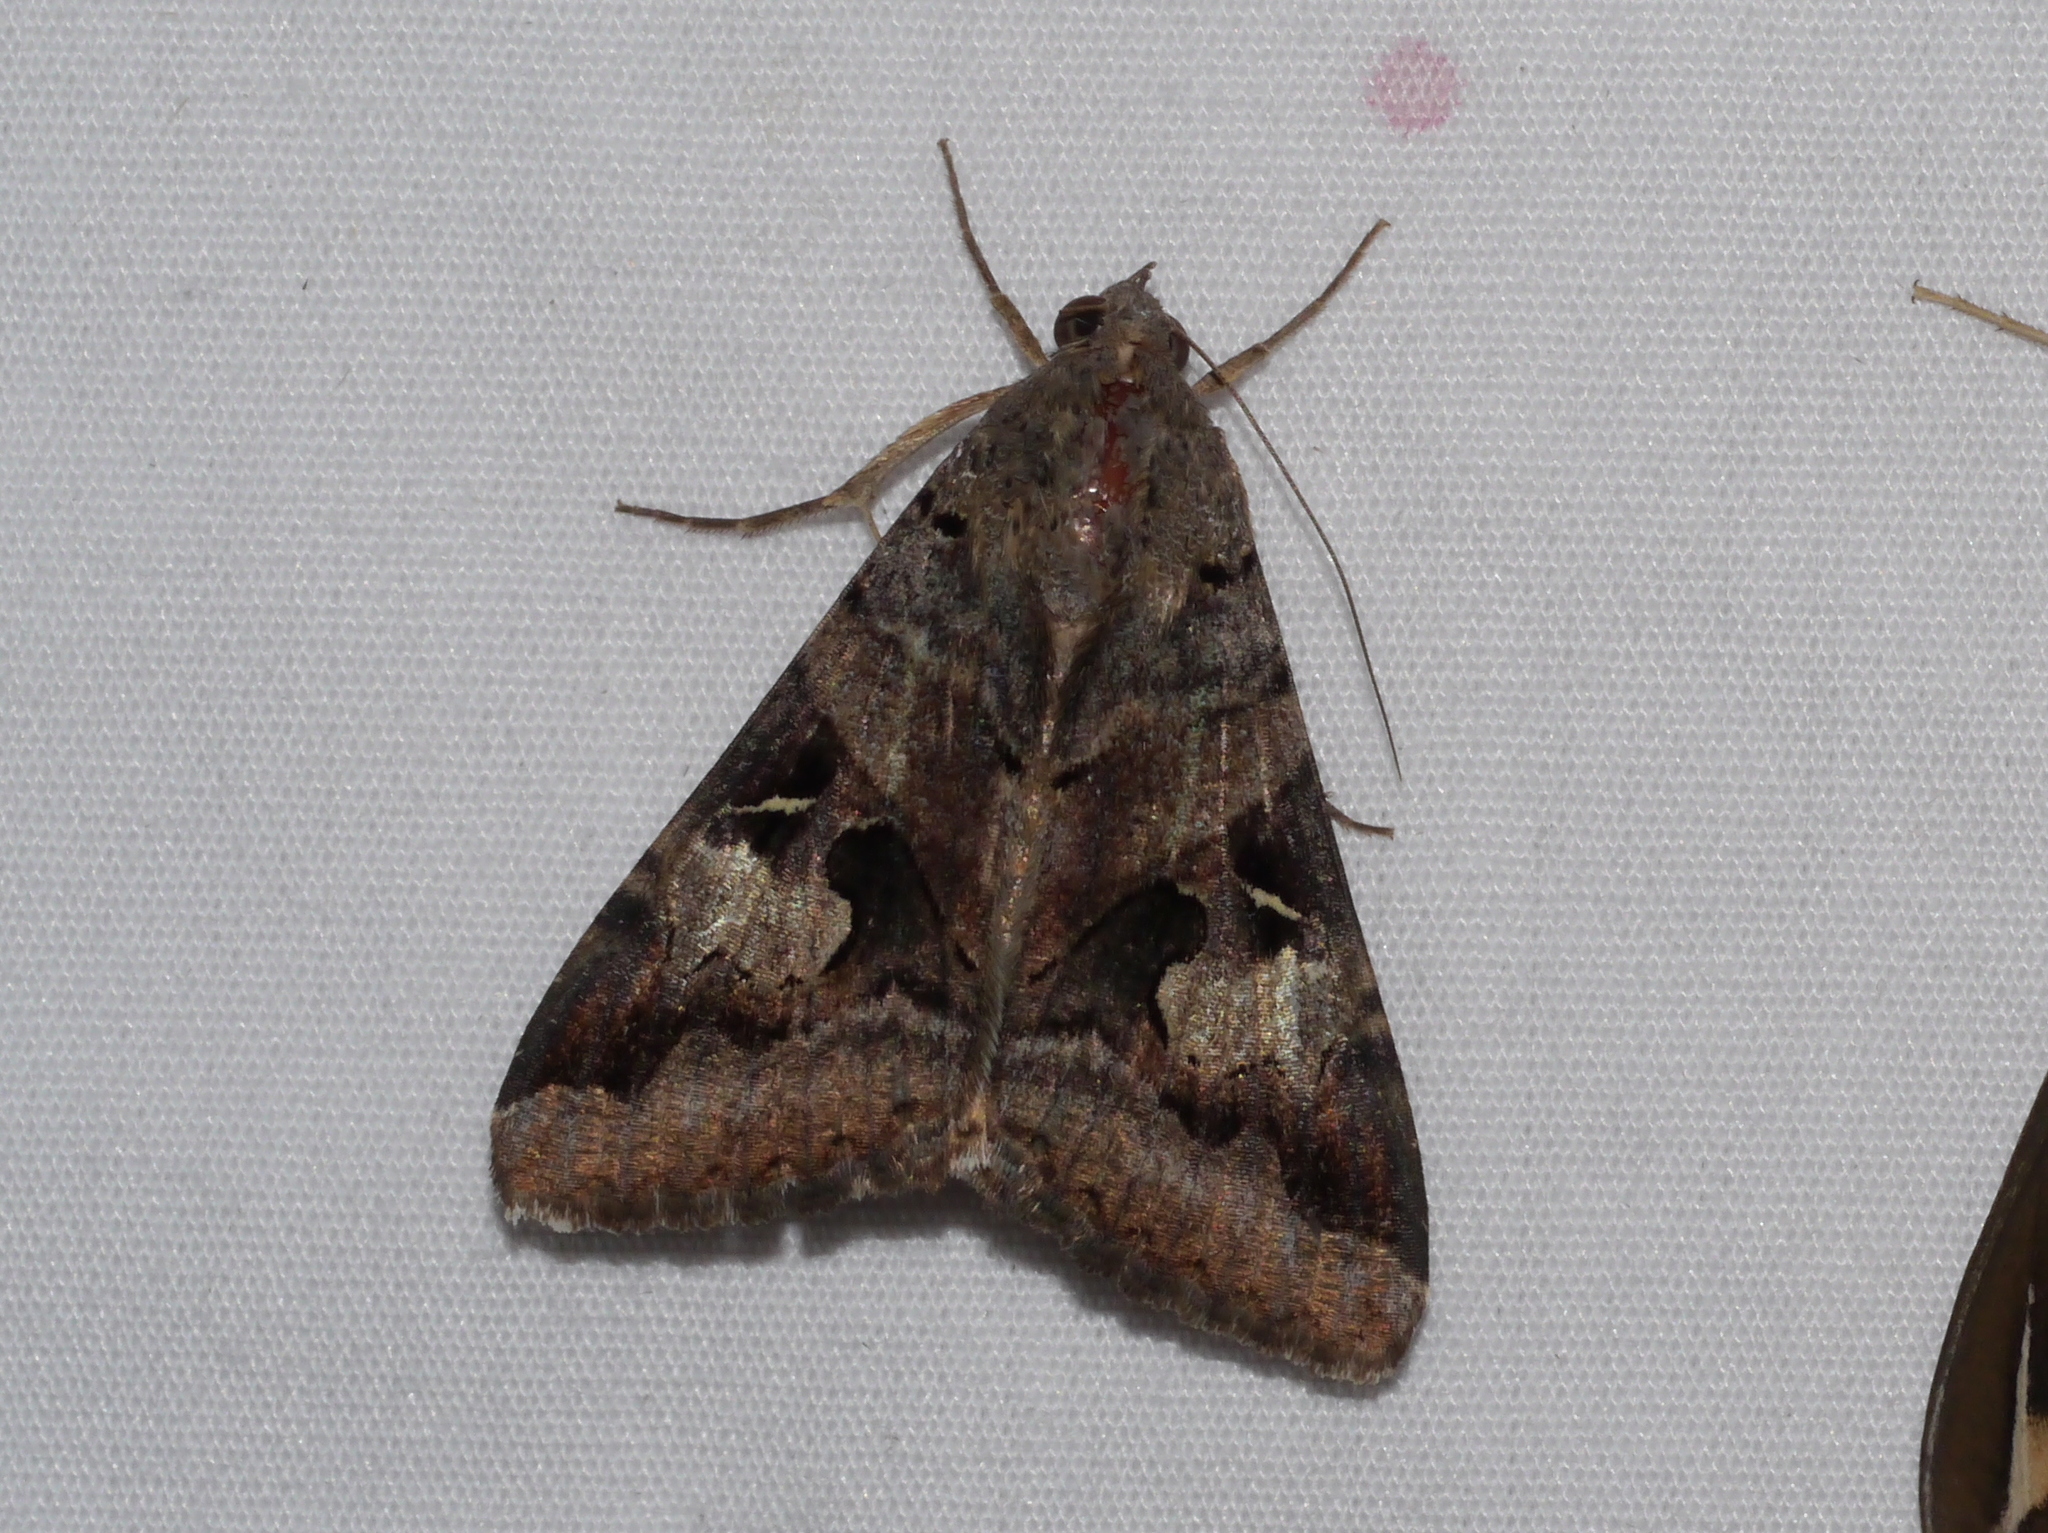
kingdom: Animalia
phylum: Arthropoda
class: Insecta
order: Lepidoptera
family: Erebidae
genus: Melipotis
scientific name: Melipotis indomita
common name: Moth
